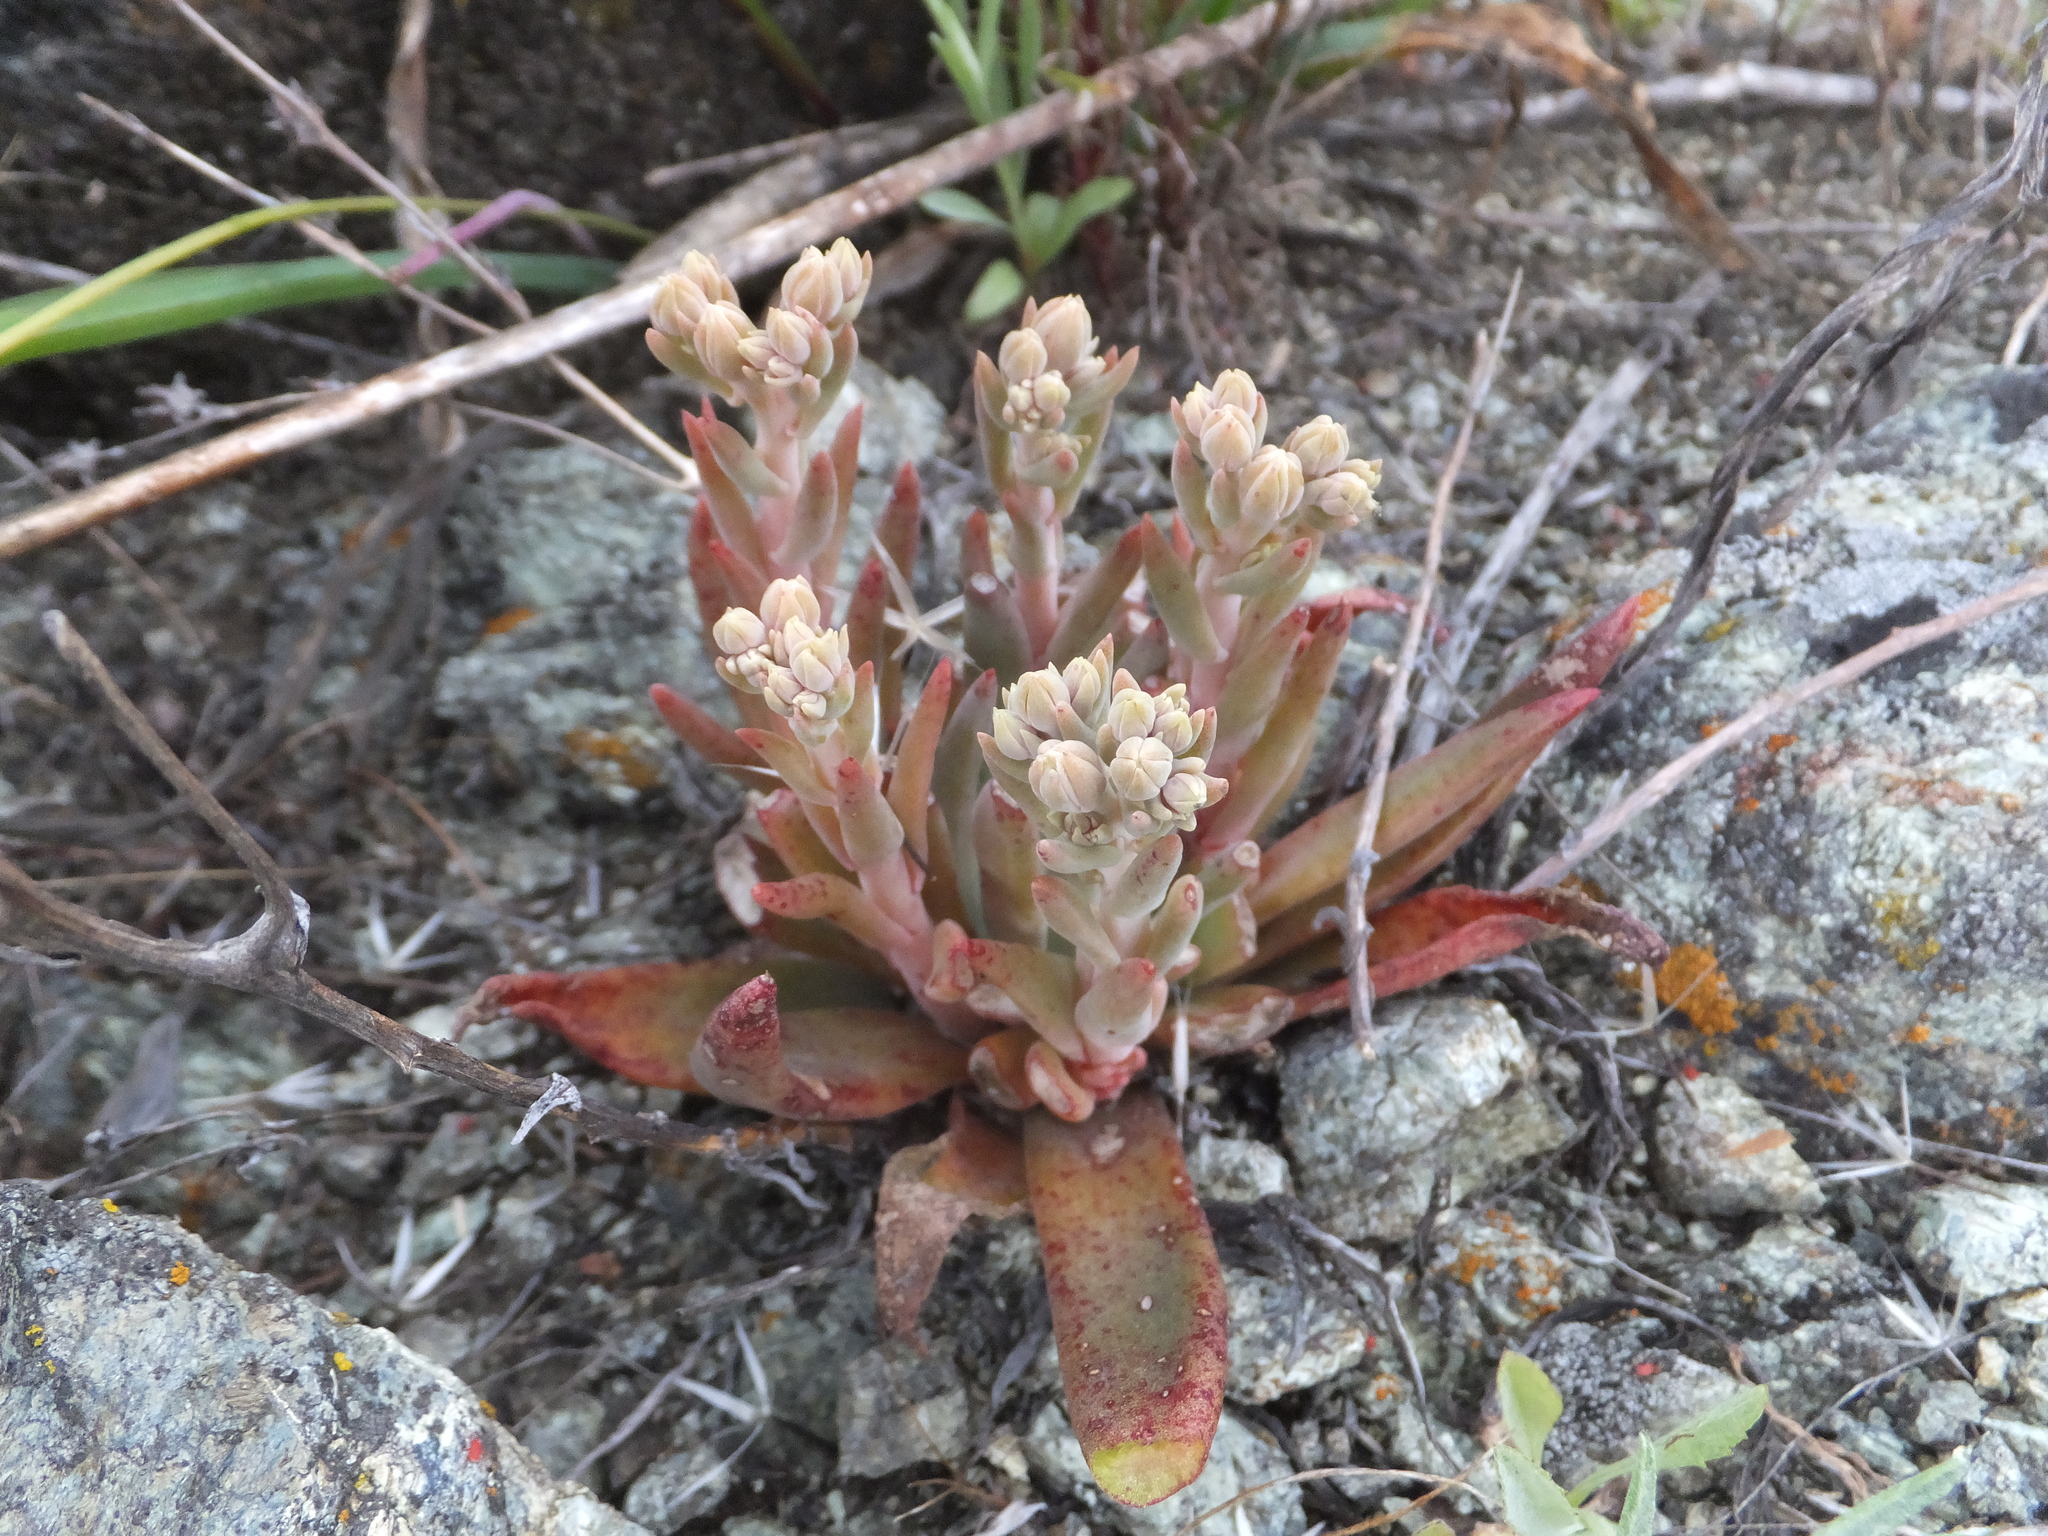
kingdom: Plantae
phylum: Tracheophyta
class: Magnoliopsida
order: Saxifragales
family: Crassulaceae
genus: Dudleya
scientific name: Dudleya abramsii
